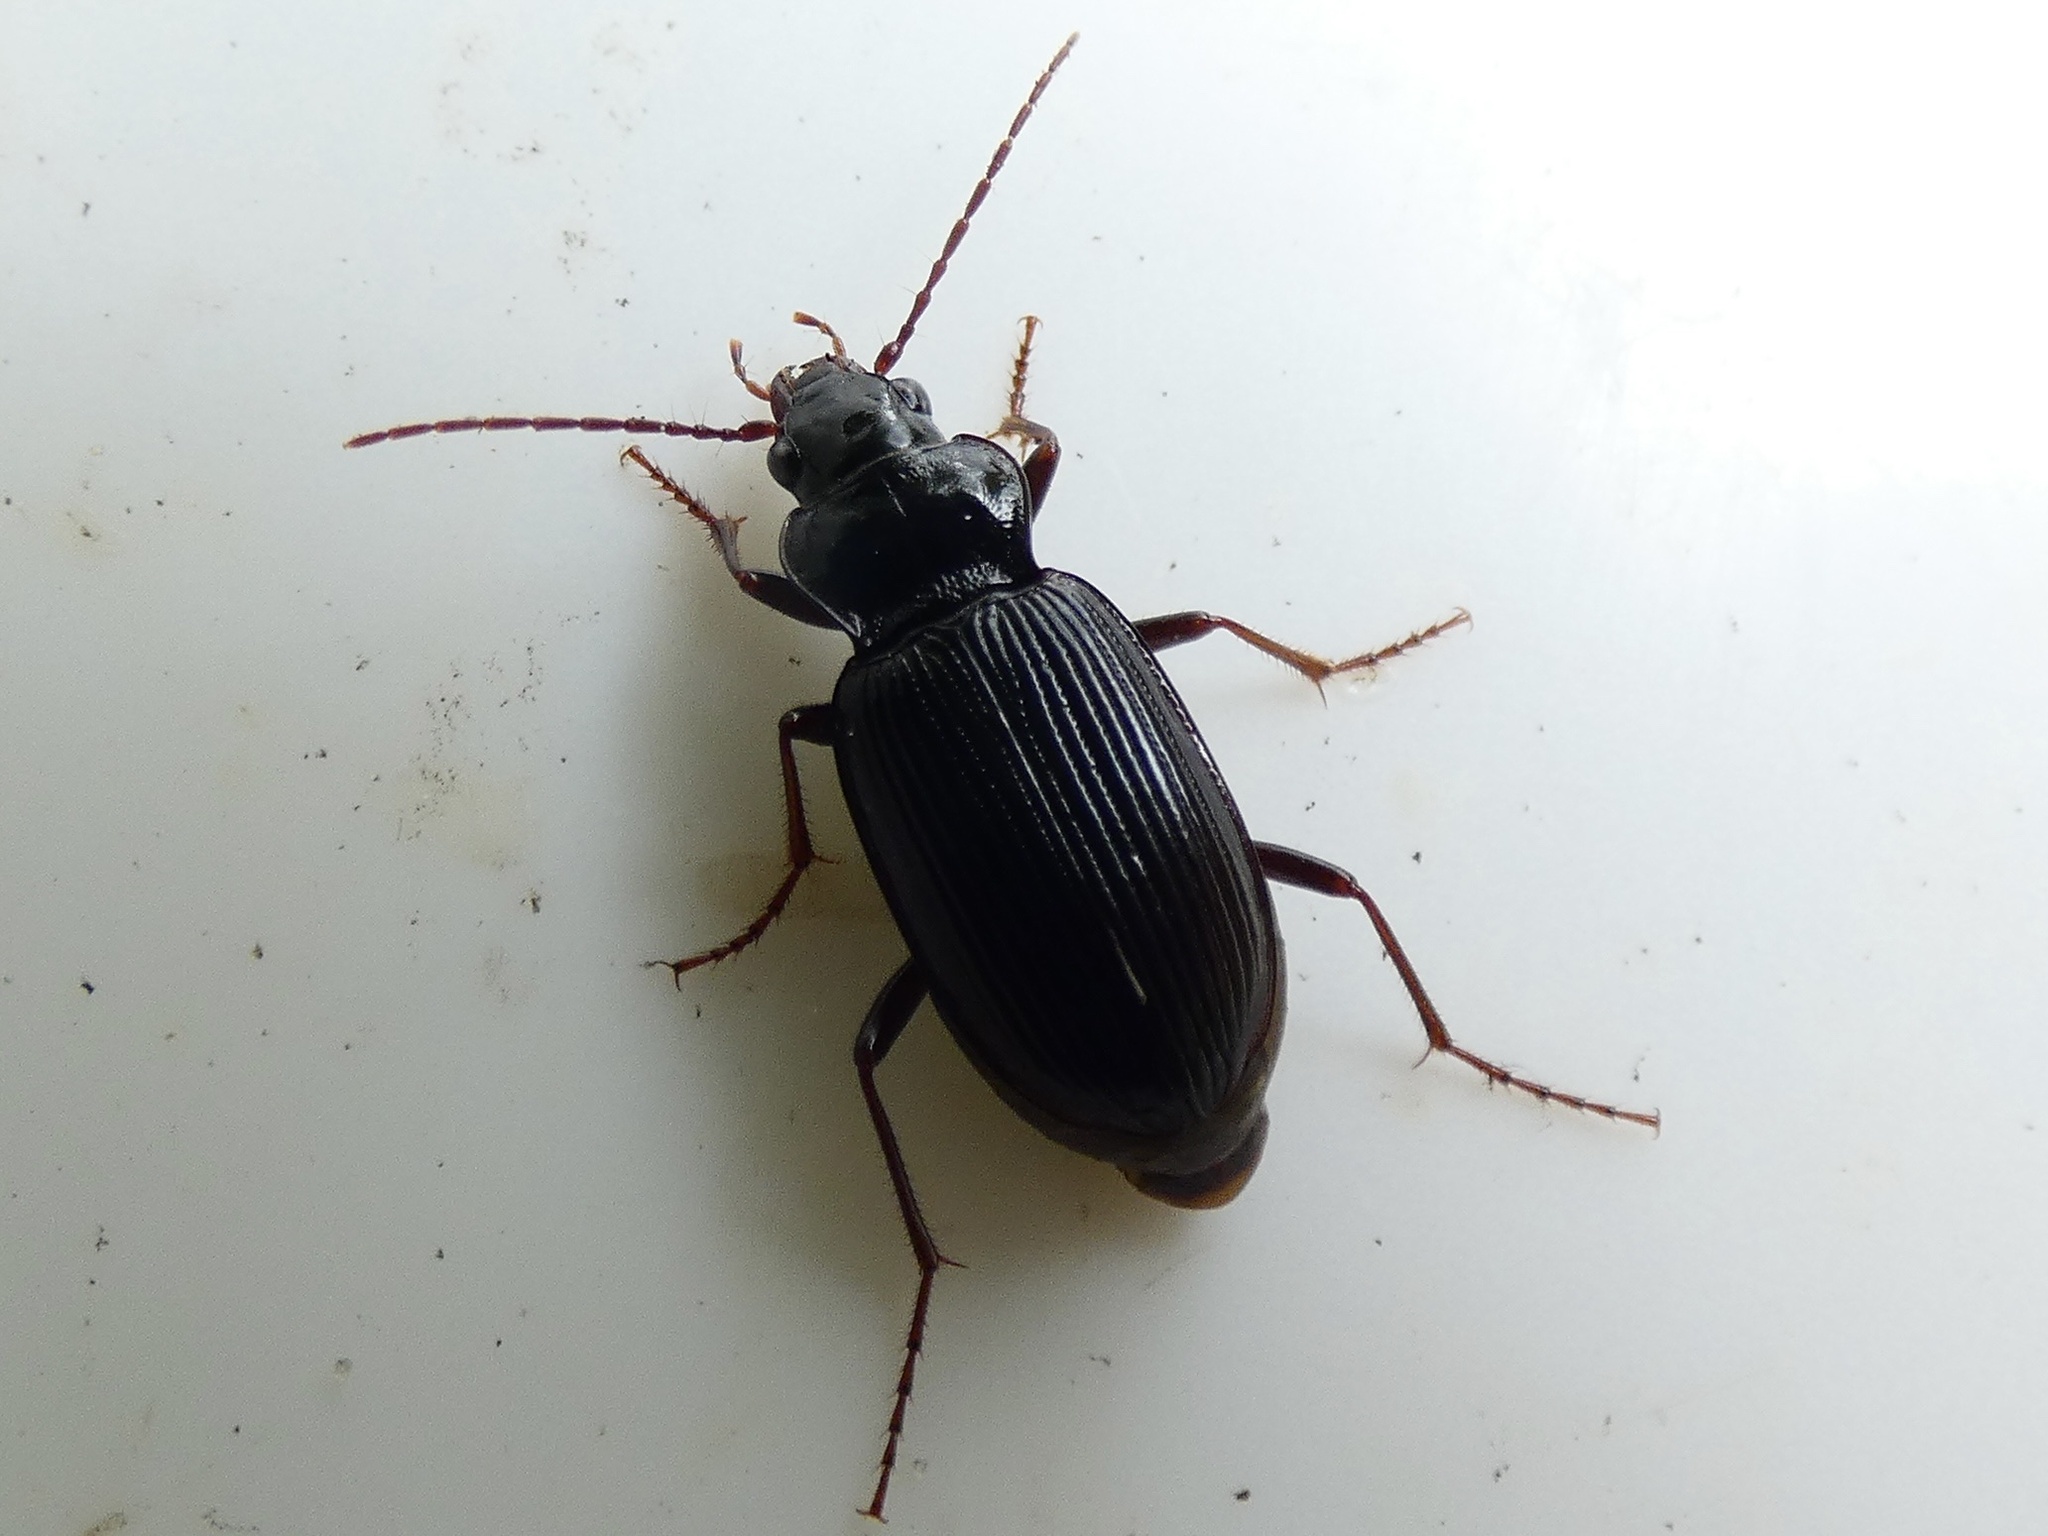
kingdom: Animalia
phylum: Arthropoda
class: Insecta
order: Coleoptera
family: Carabidae
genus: Nebria
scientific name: Nebria brevicollis
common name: Short-necked gazelle beetle
